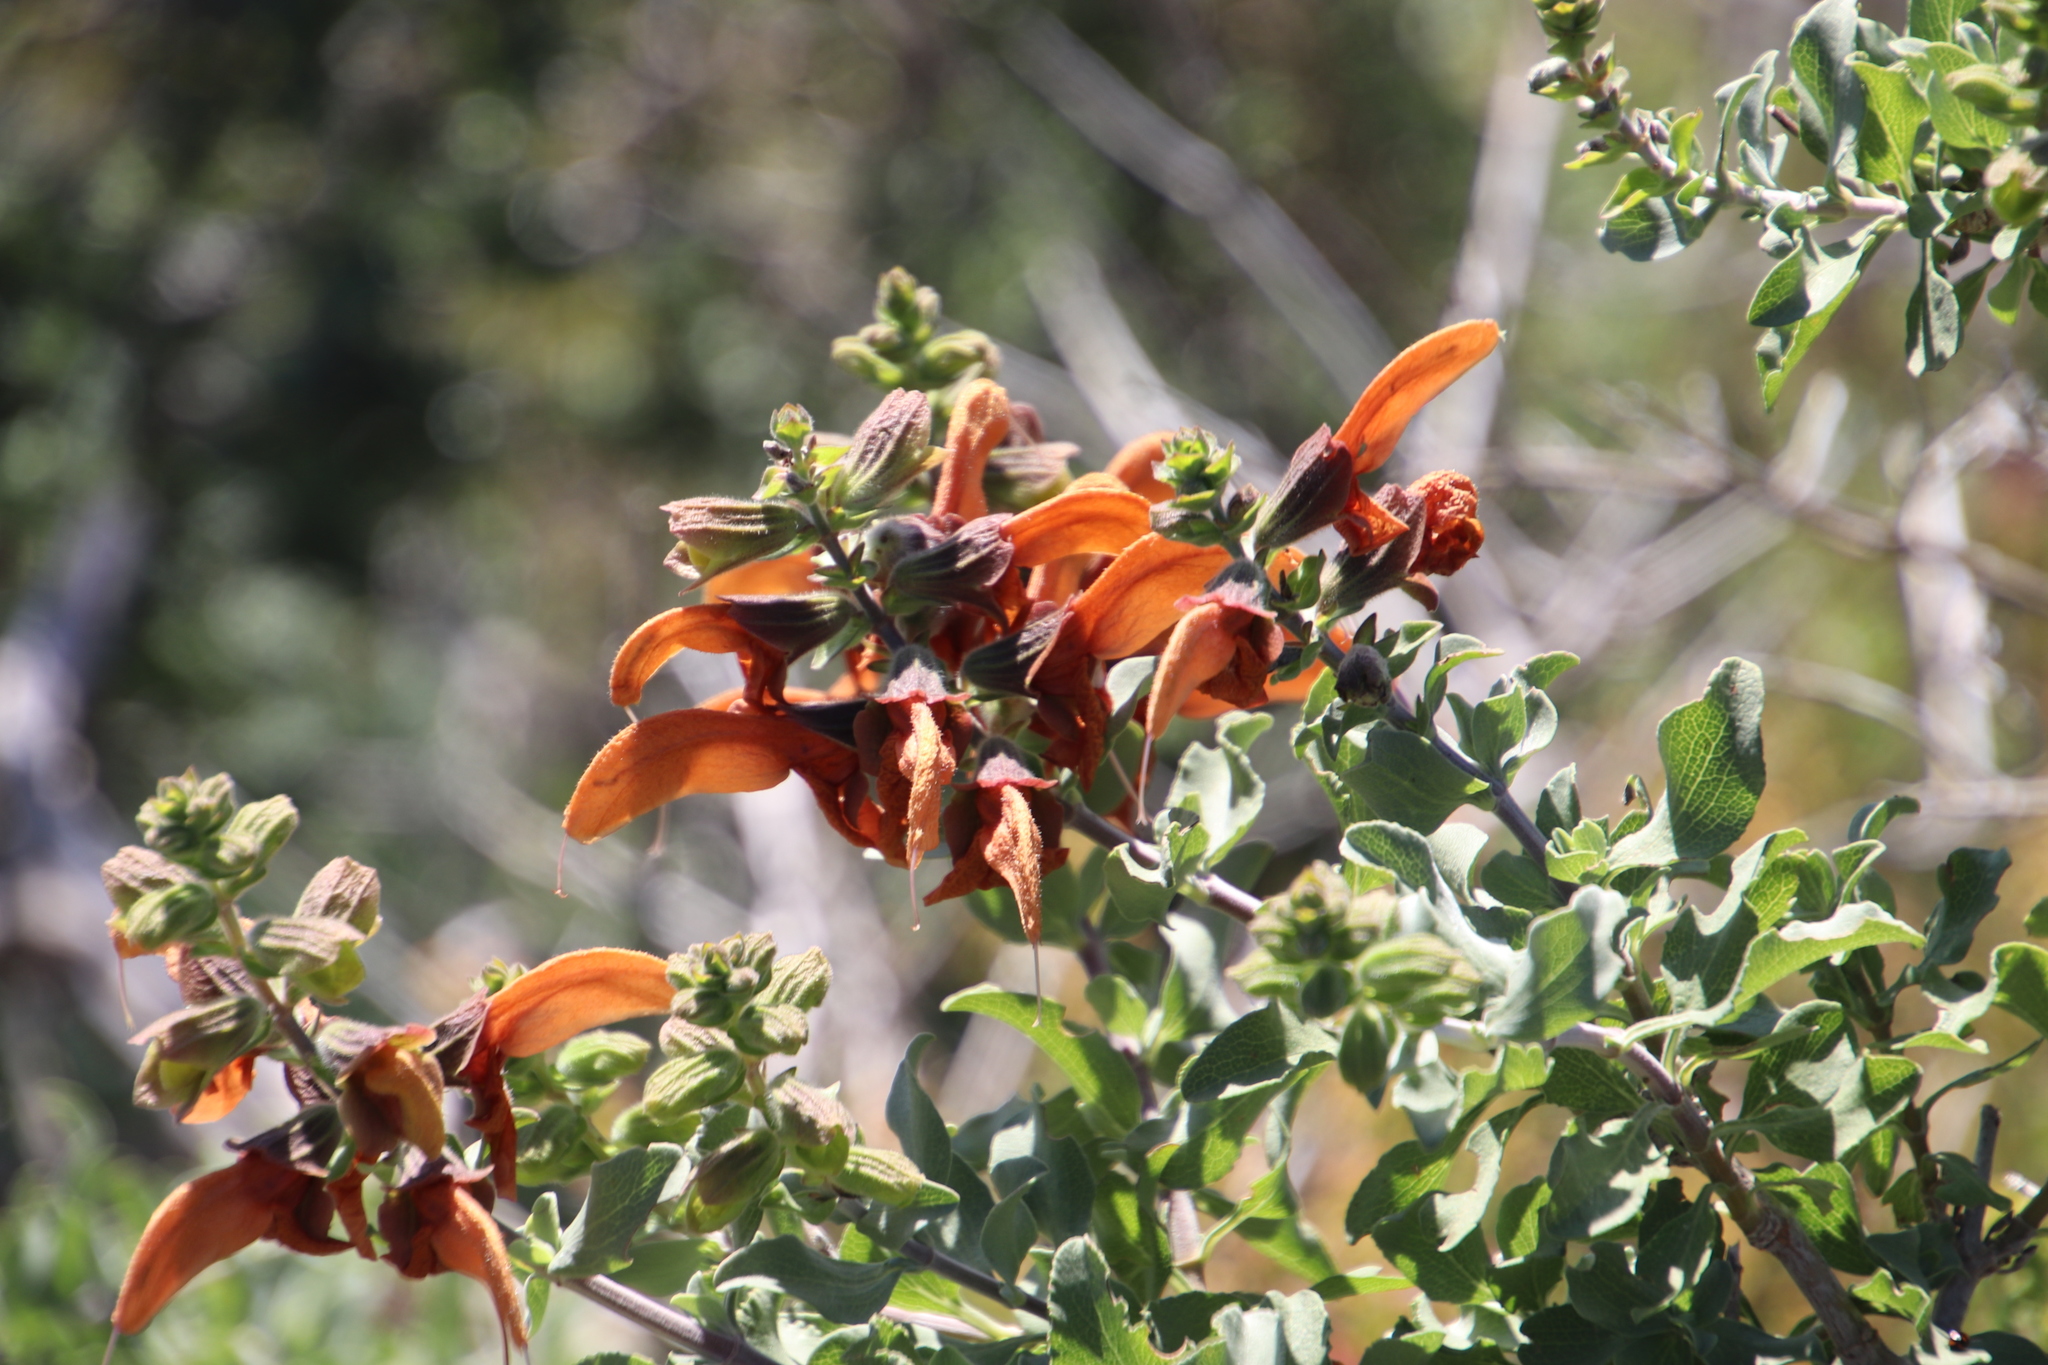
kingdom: Plantae
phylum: Tracheophyta
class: Magnoliopsida
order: Lamiales
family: Lamiaceae
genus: Salvia
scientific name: Salvia aurea
